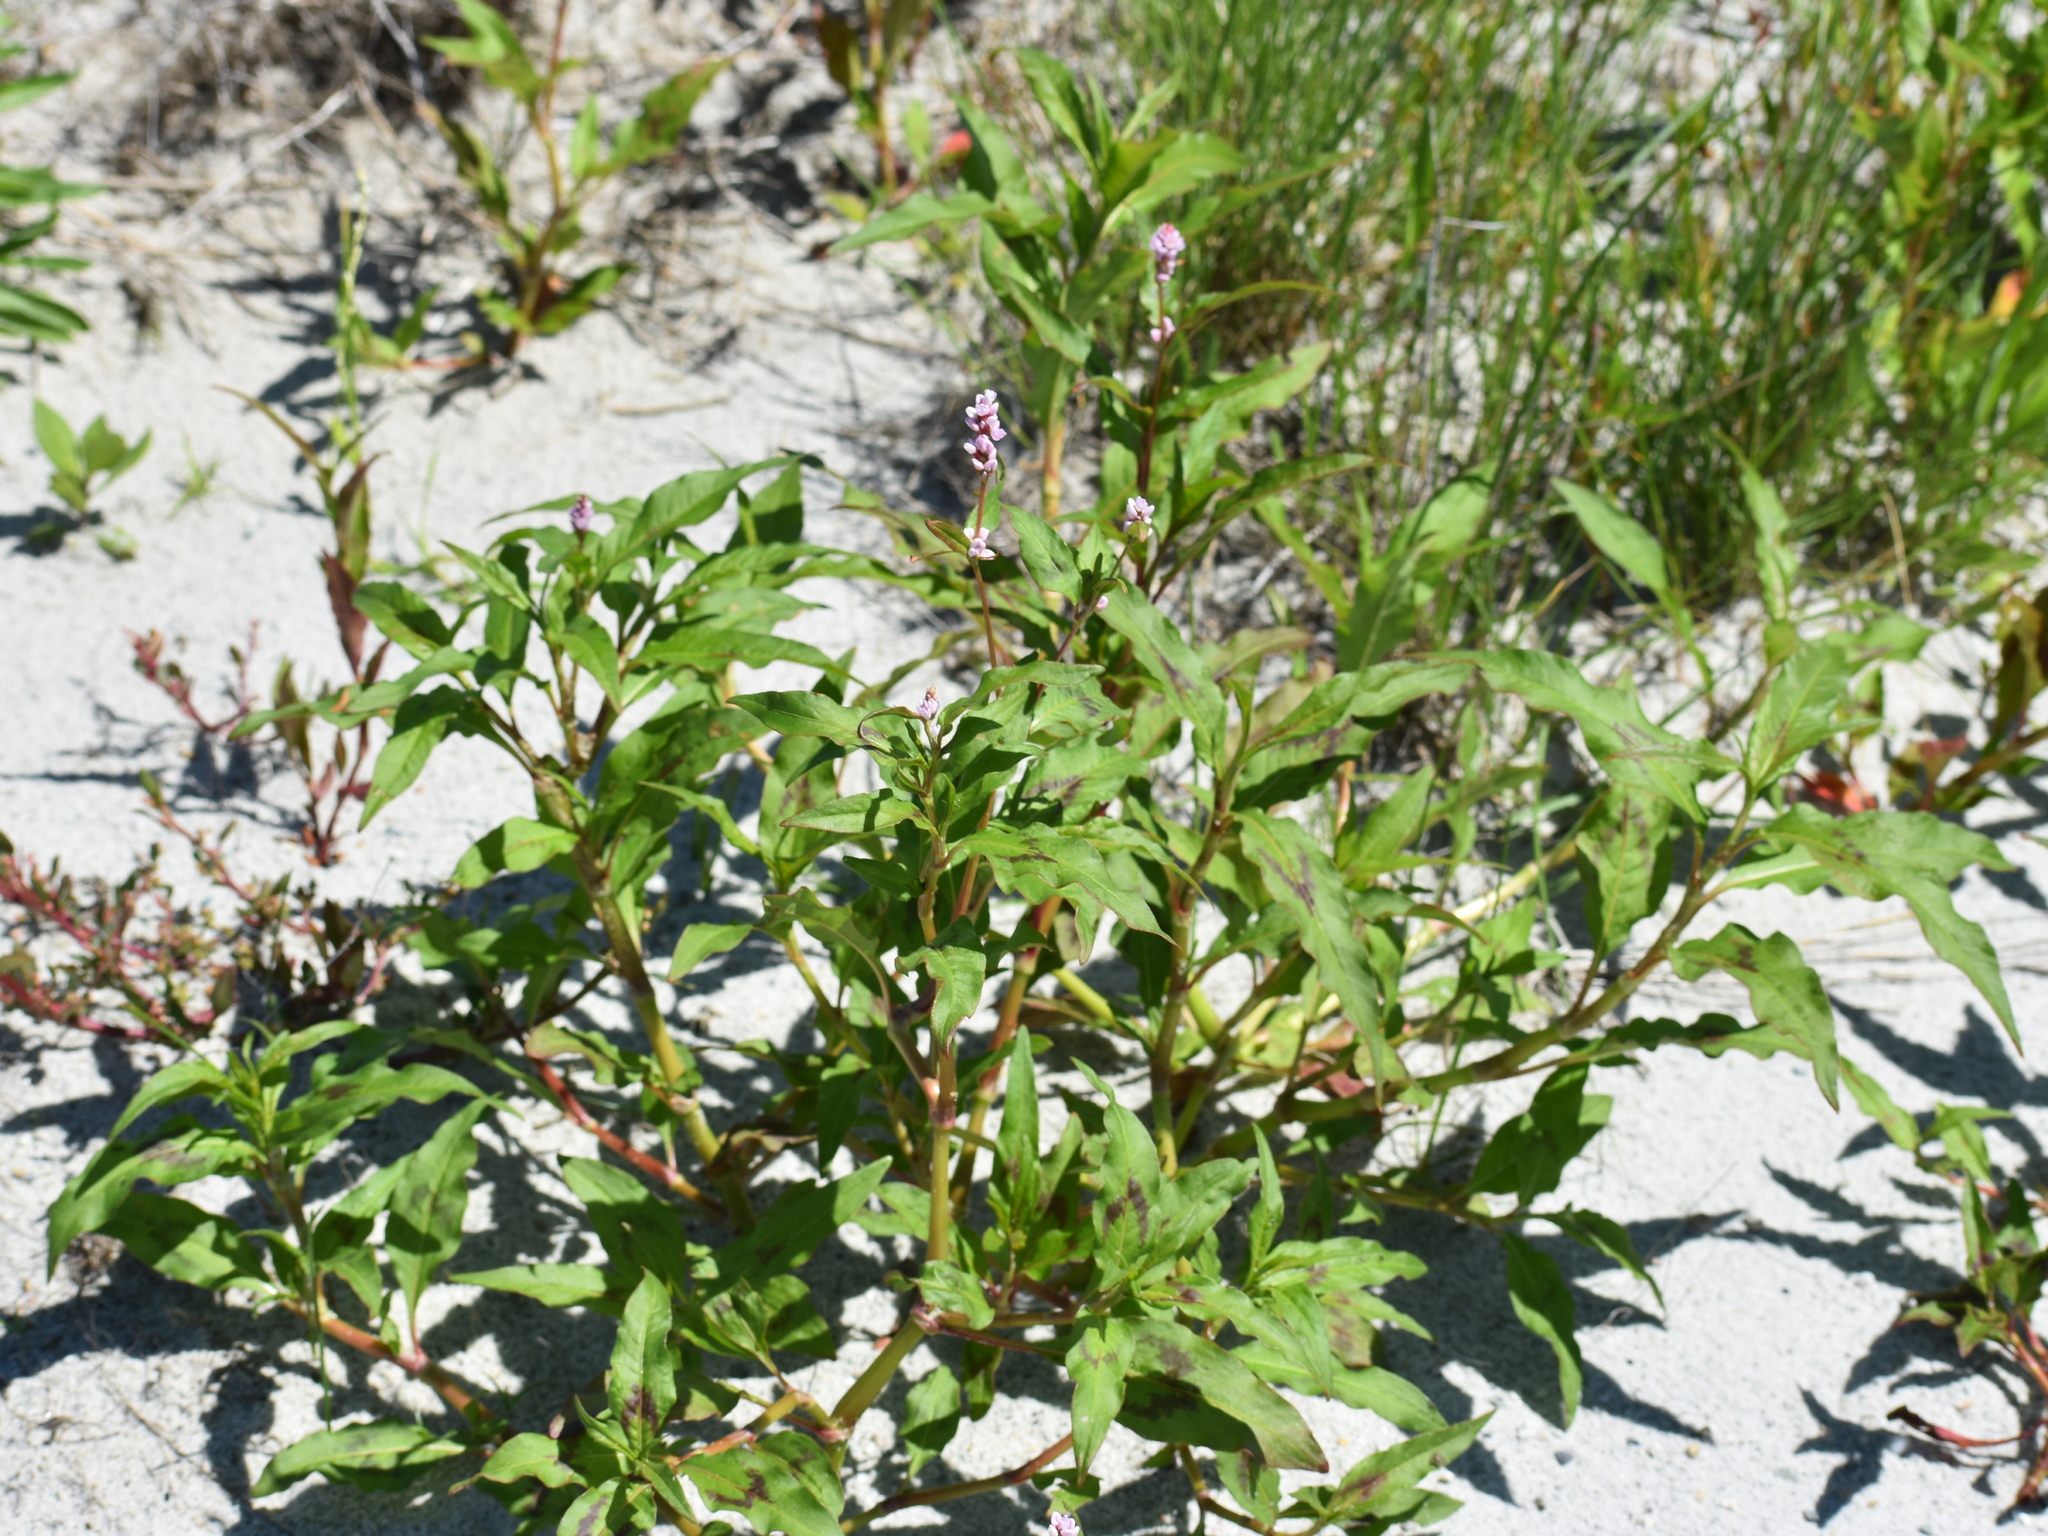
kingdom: Plantae
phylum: Tracheophyta
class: Magnoliopsida
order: Caryophyllales
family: Polygonaceae
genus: Persicaria
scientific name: Persicaria maculosa
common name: Redshank
